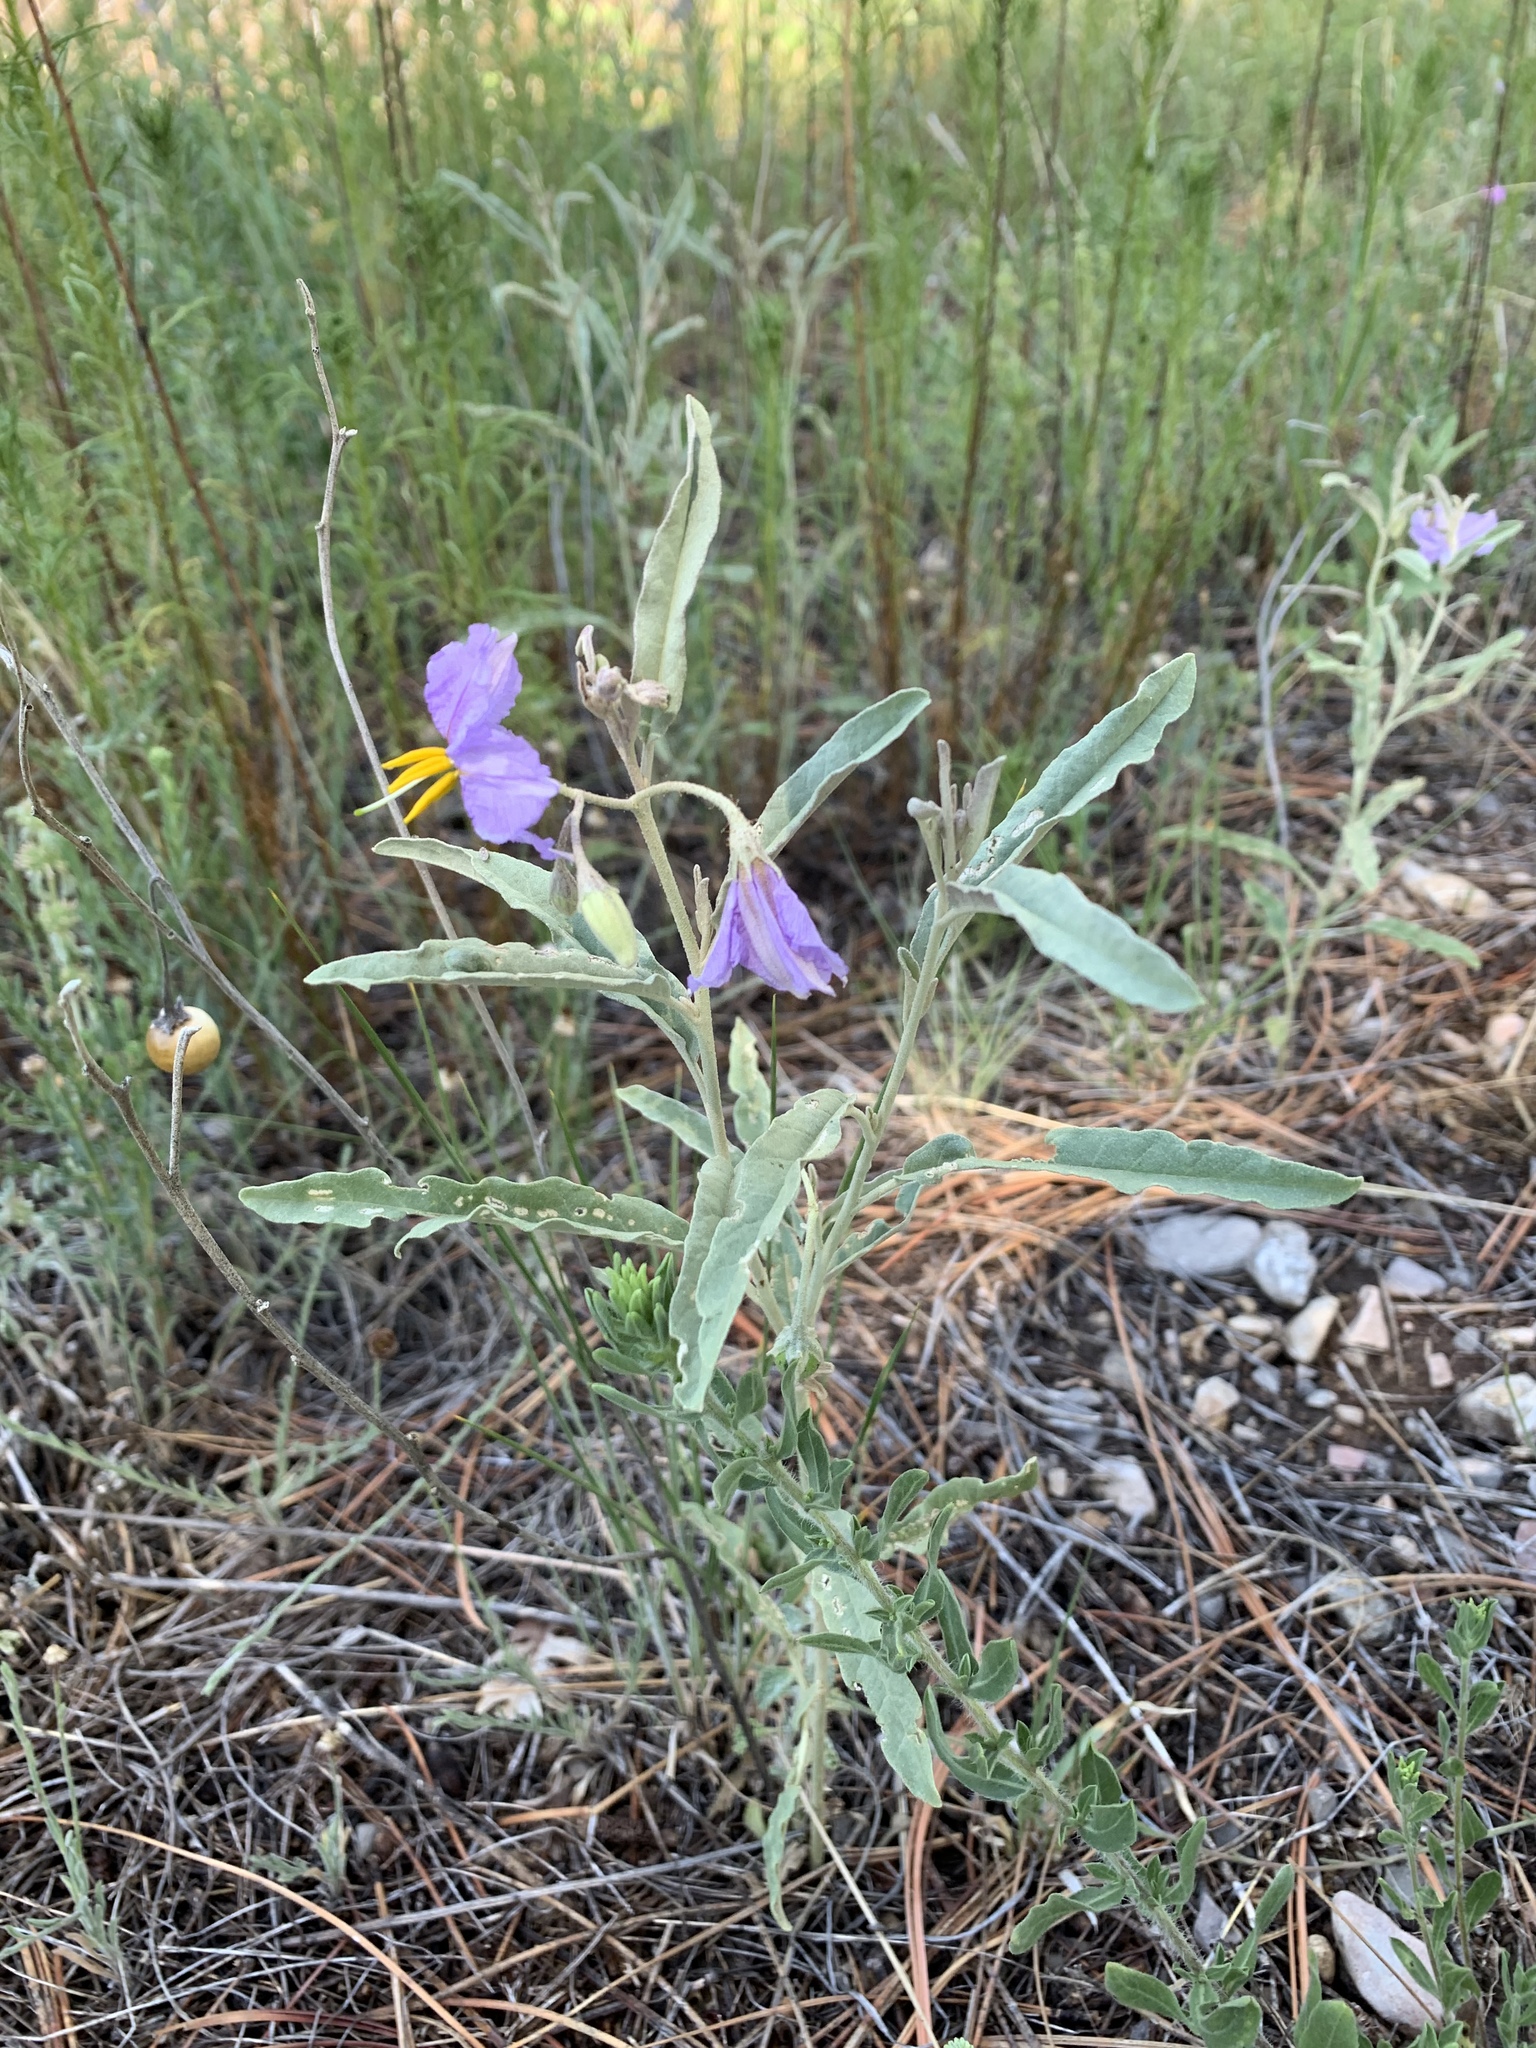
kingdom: Plantae
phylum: Tracheophyta
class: Magnoliopsida
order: Solanales
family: Solanaceae
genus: Solanum
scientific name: Solanum elaeagnifolium
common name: Silverleaf nightshade
